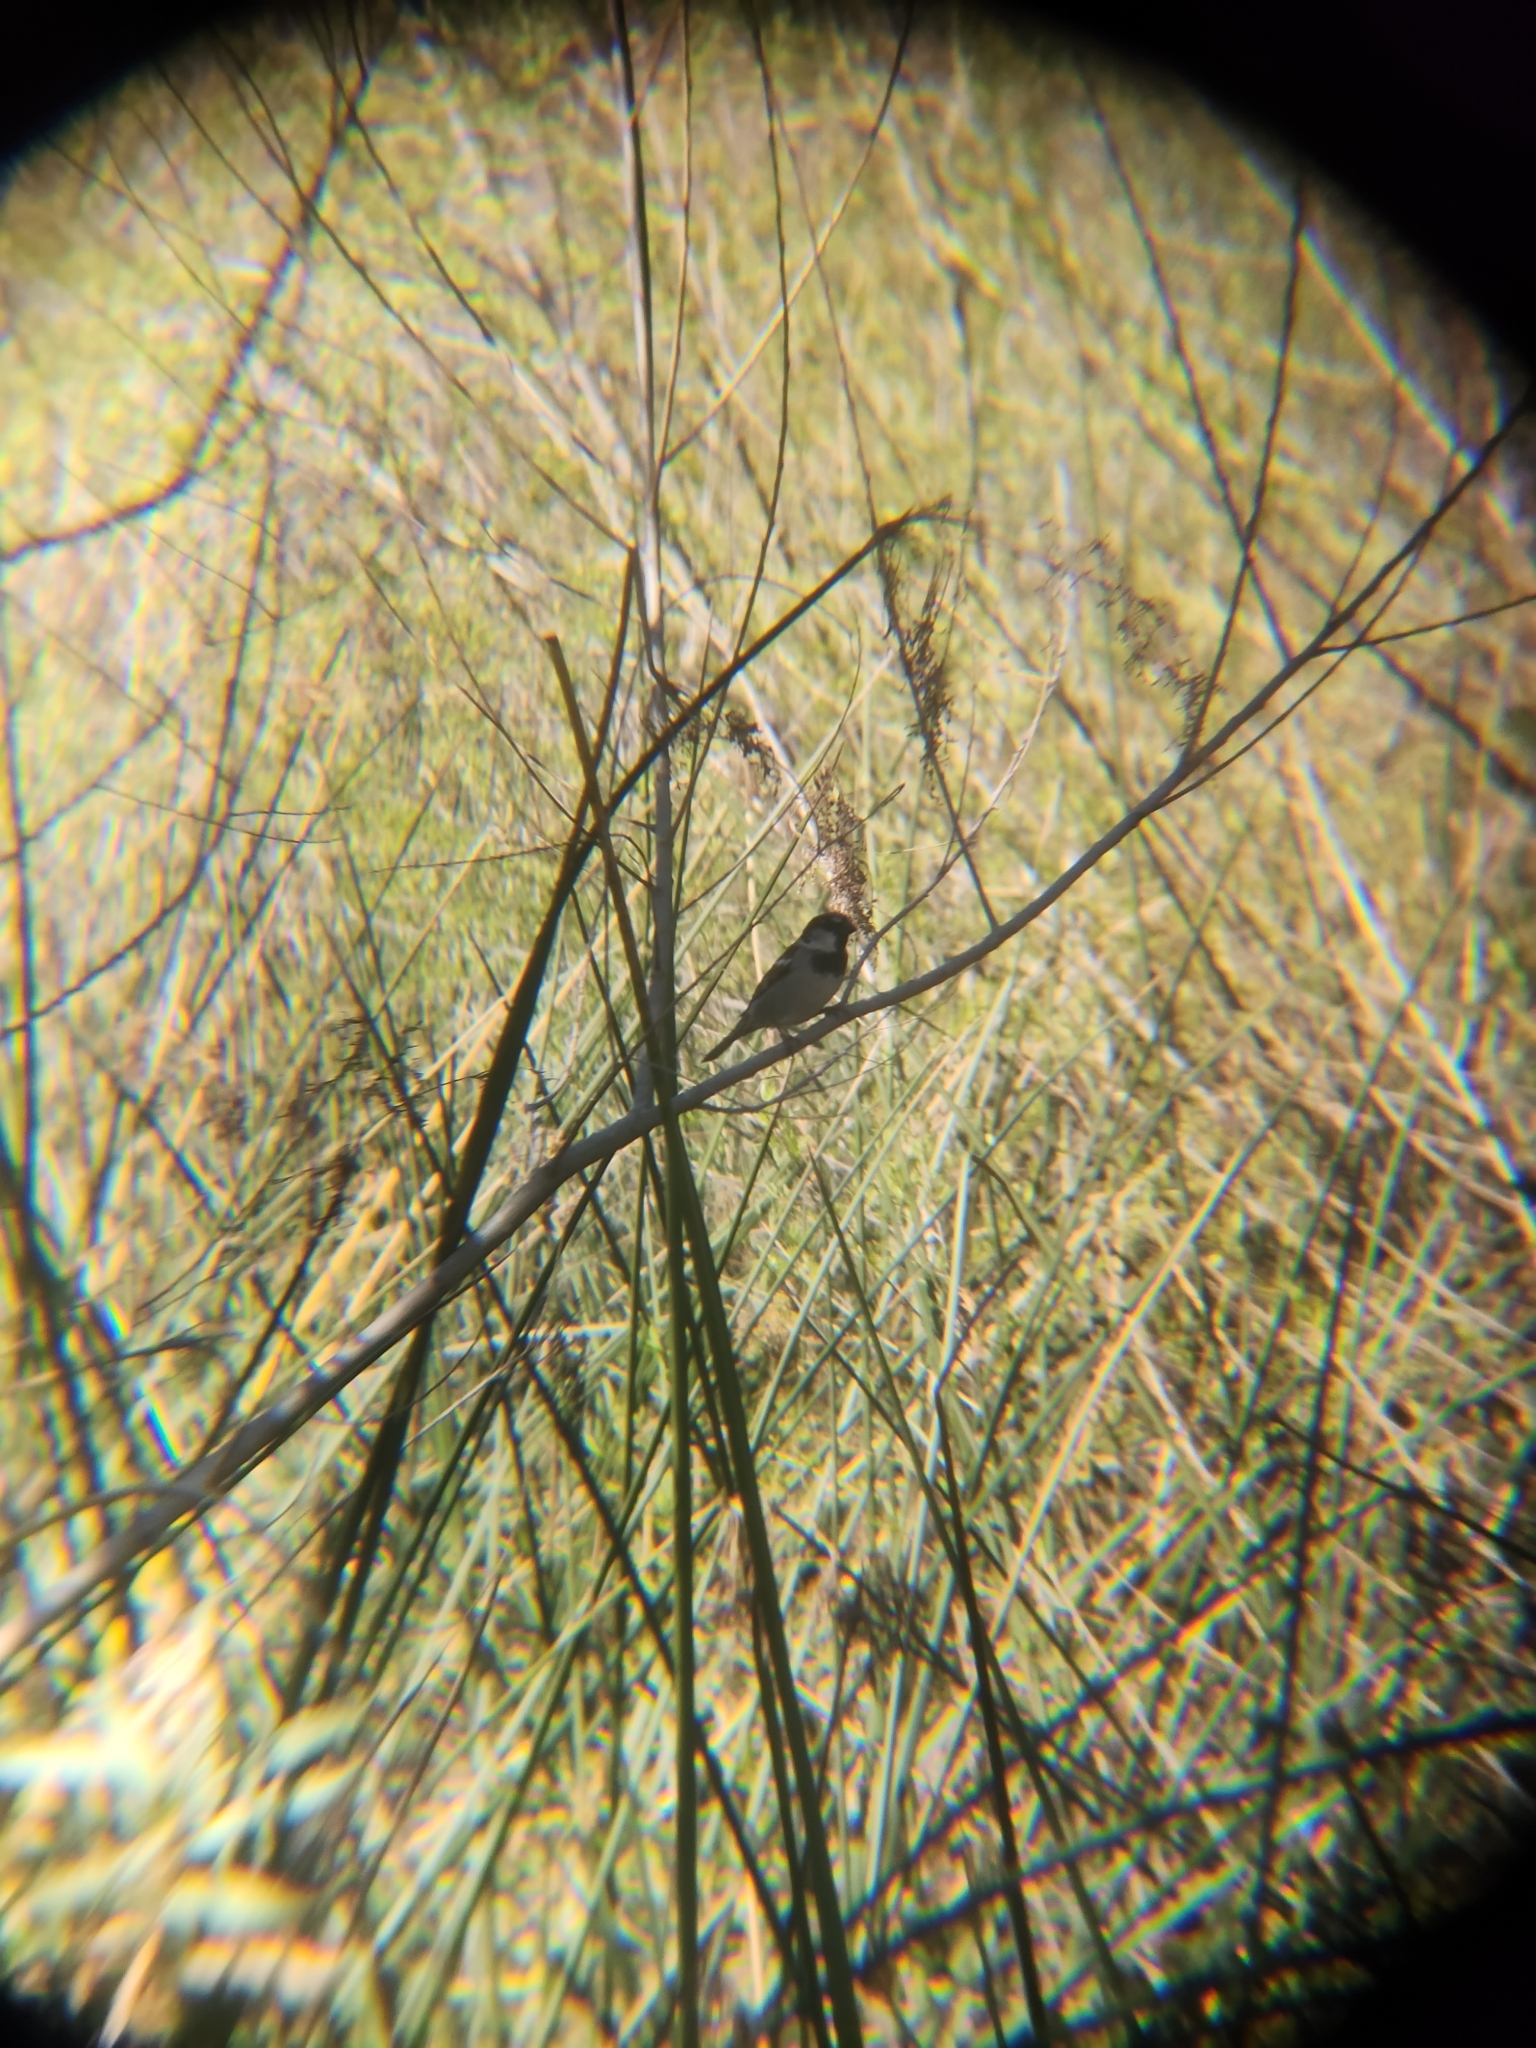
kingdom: Animalia
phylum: Chordata
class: Aves
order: Passeriformes
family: Passeridae
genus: Passer
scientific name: Passer domesticus
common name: House sparrow
